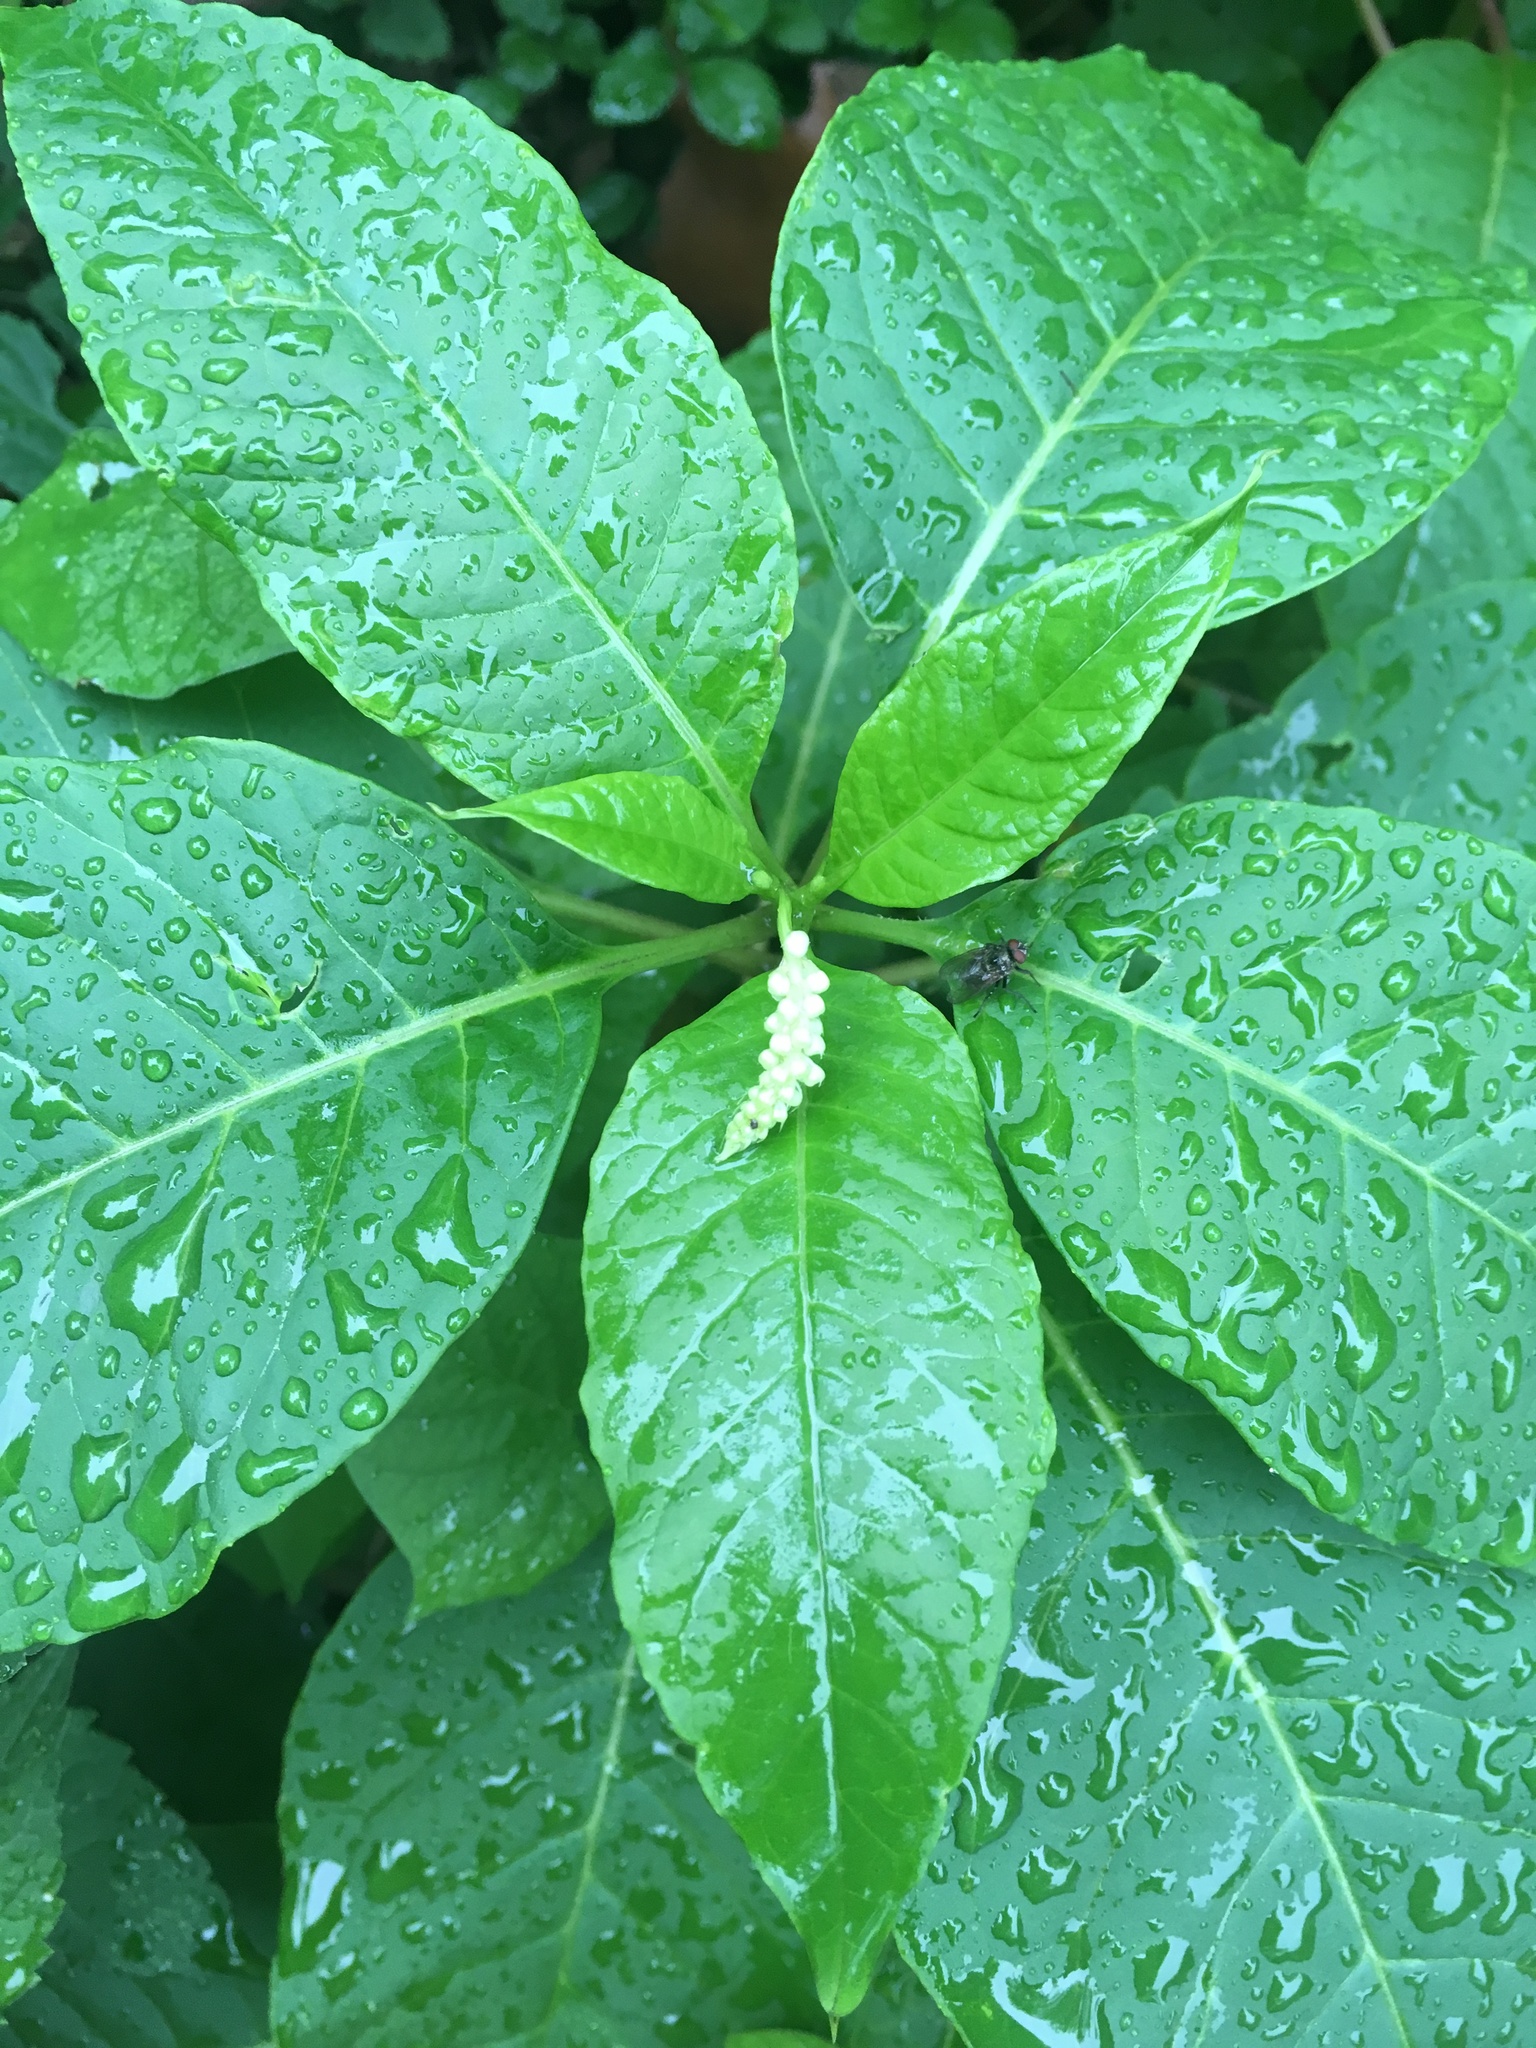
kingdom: Plantae
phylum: Tracheophyta
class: Magnoliopsida
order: Caryophyllales
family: Phytolaccaceae
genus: Phytolacca
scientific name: Phytolacca americana
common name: American pokeweed
